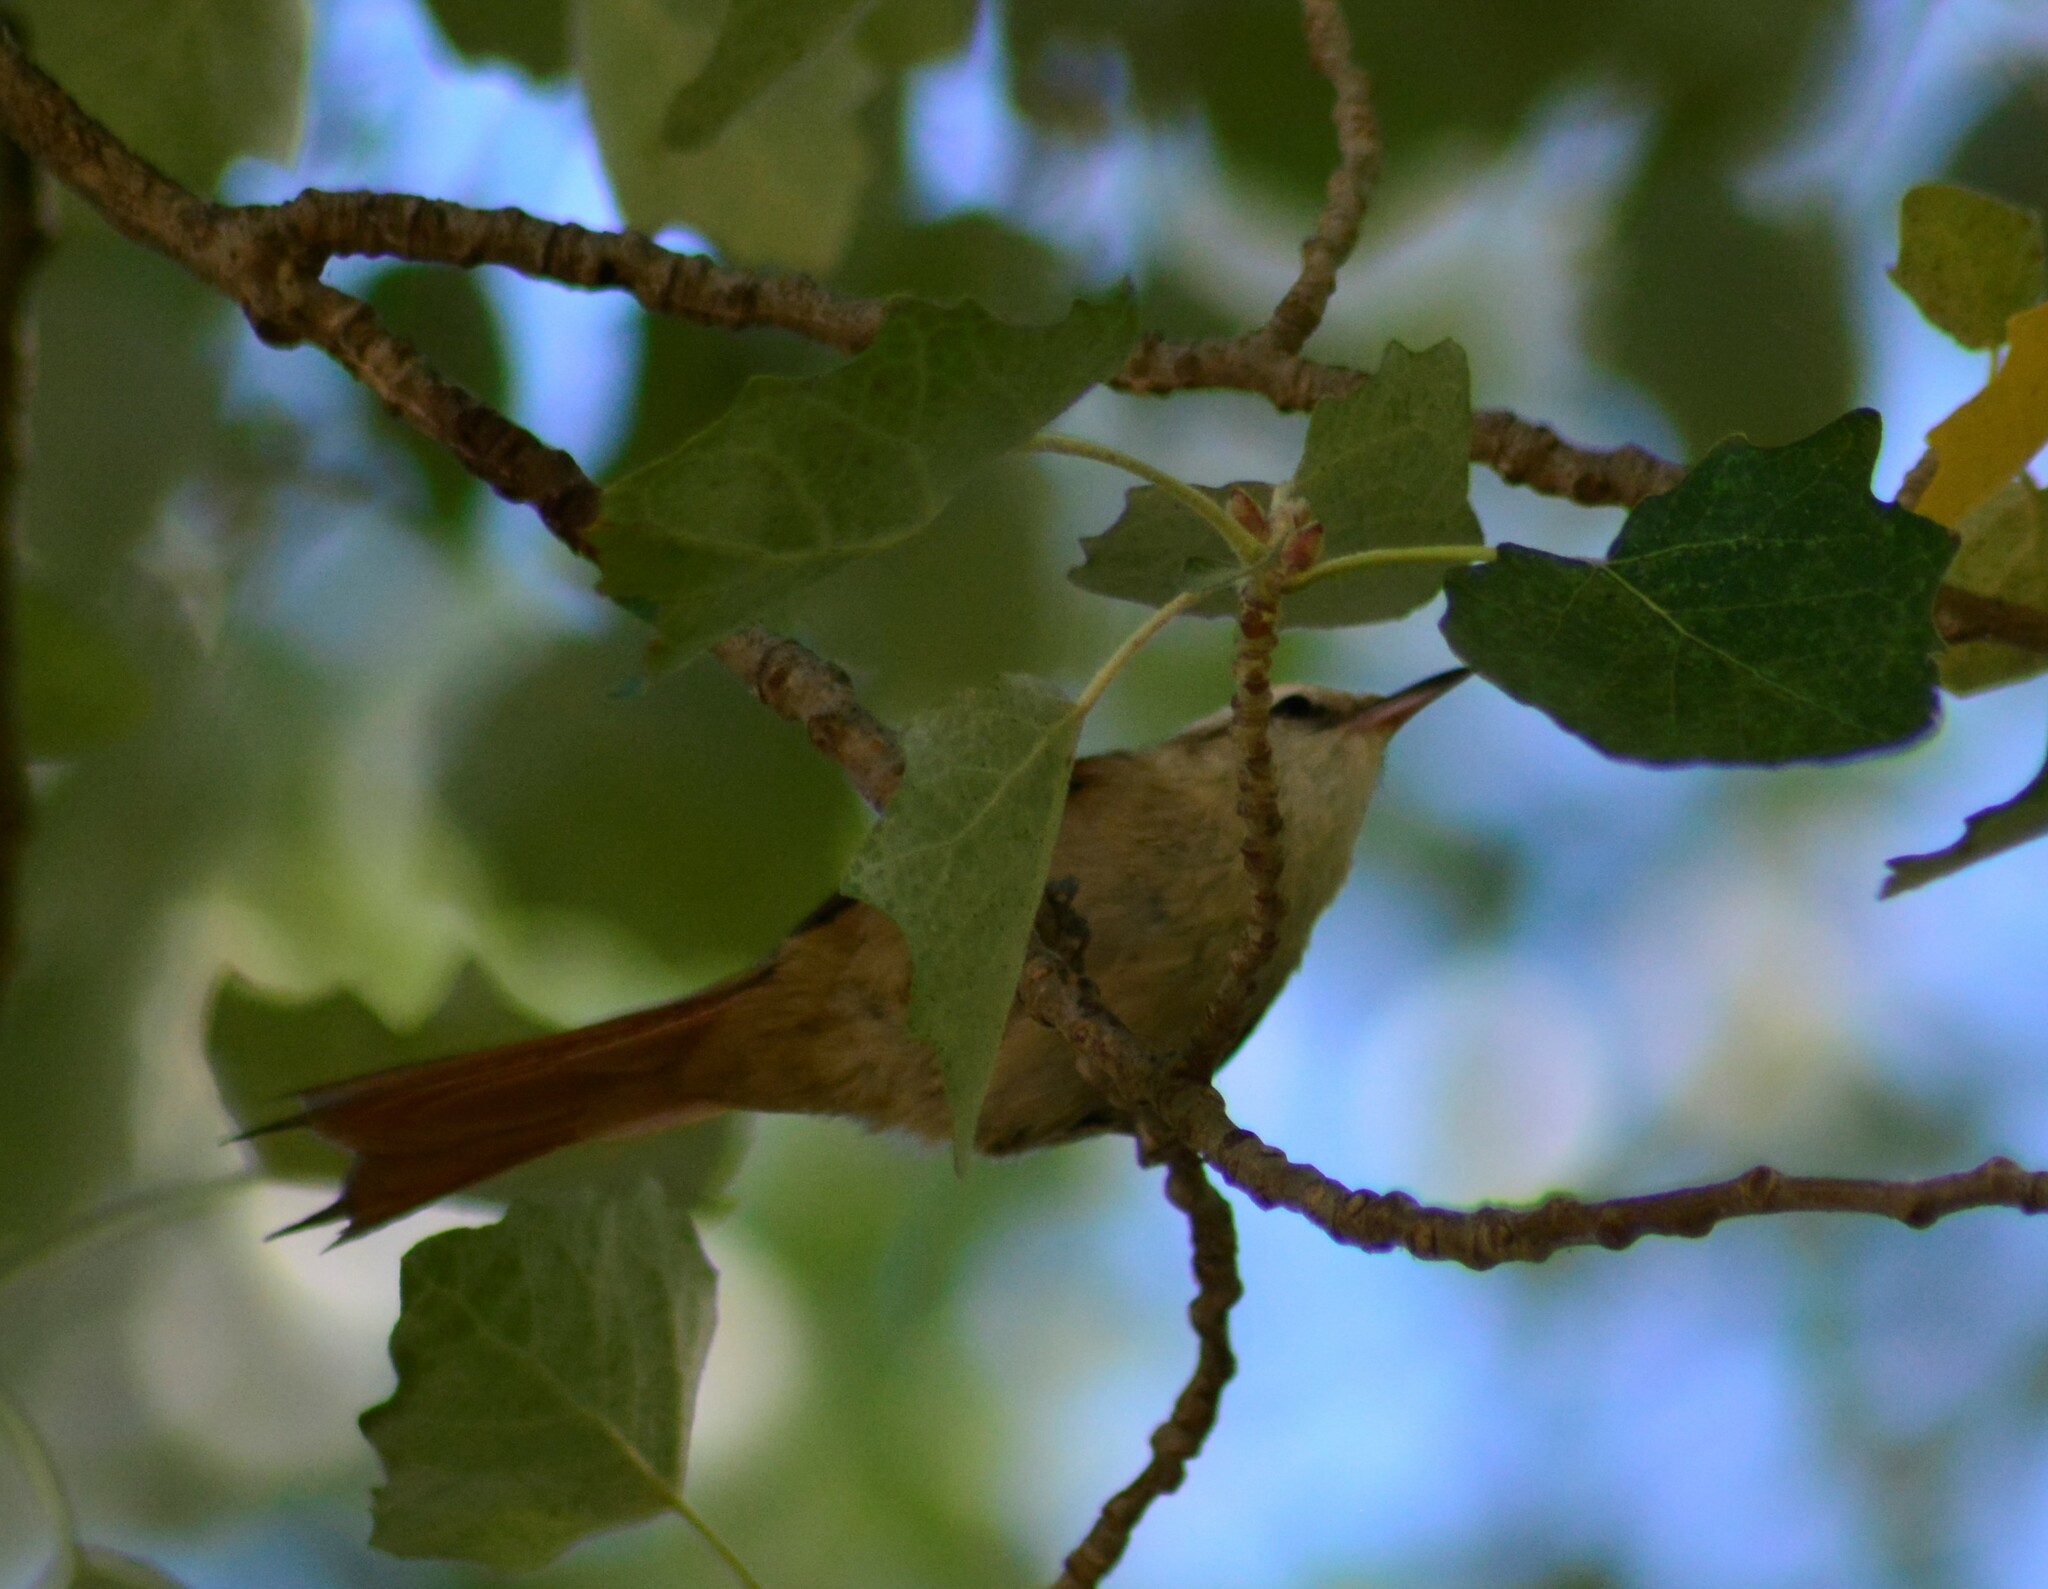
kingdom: Animalia
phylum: Chordata
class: Aves
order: Passeriformes
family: Furnariidae
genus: Cranioleuca
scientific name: Cranioleuca pyrrhophia
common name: Stripe-crowned spinetail
